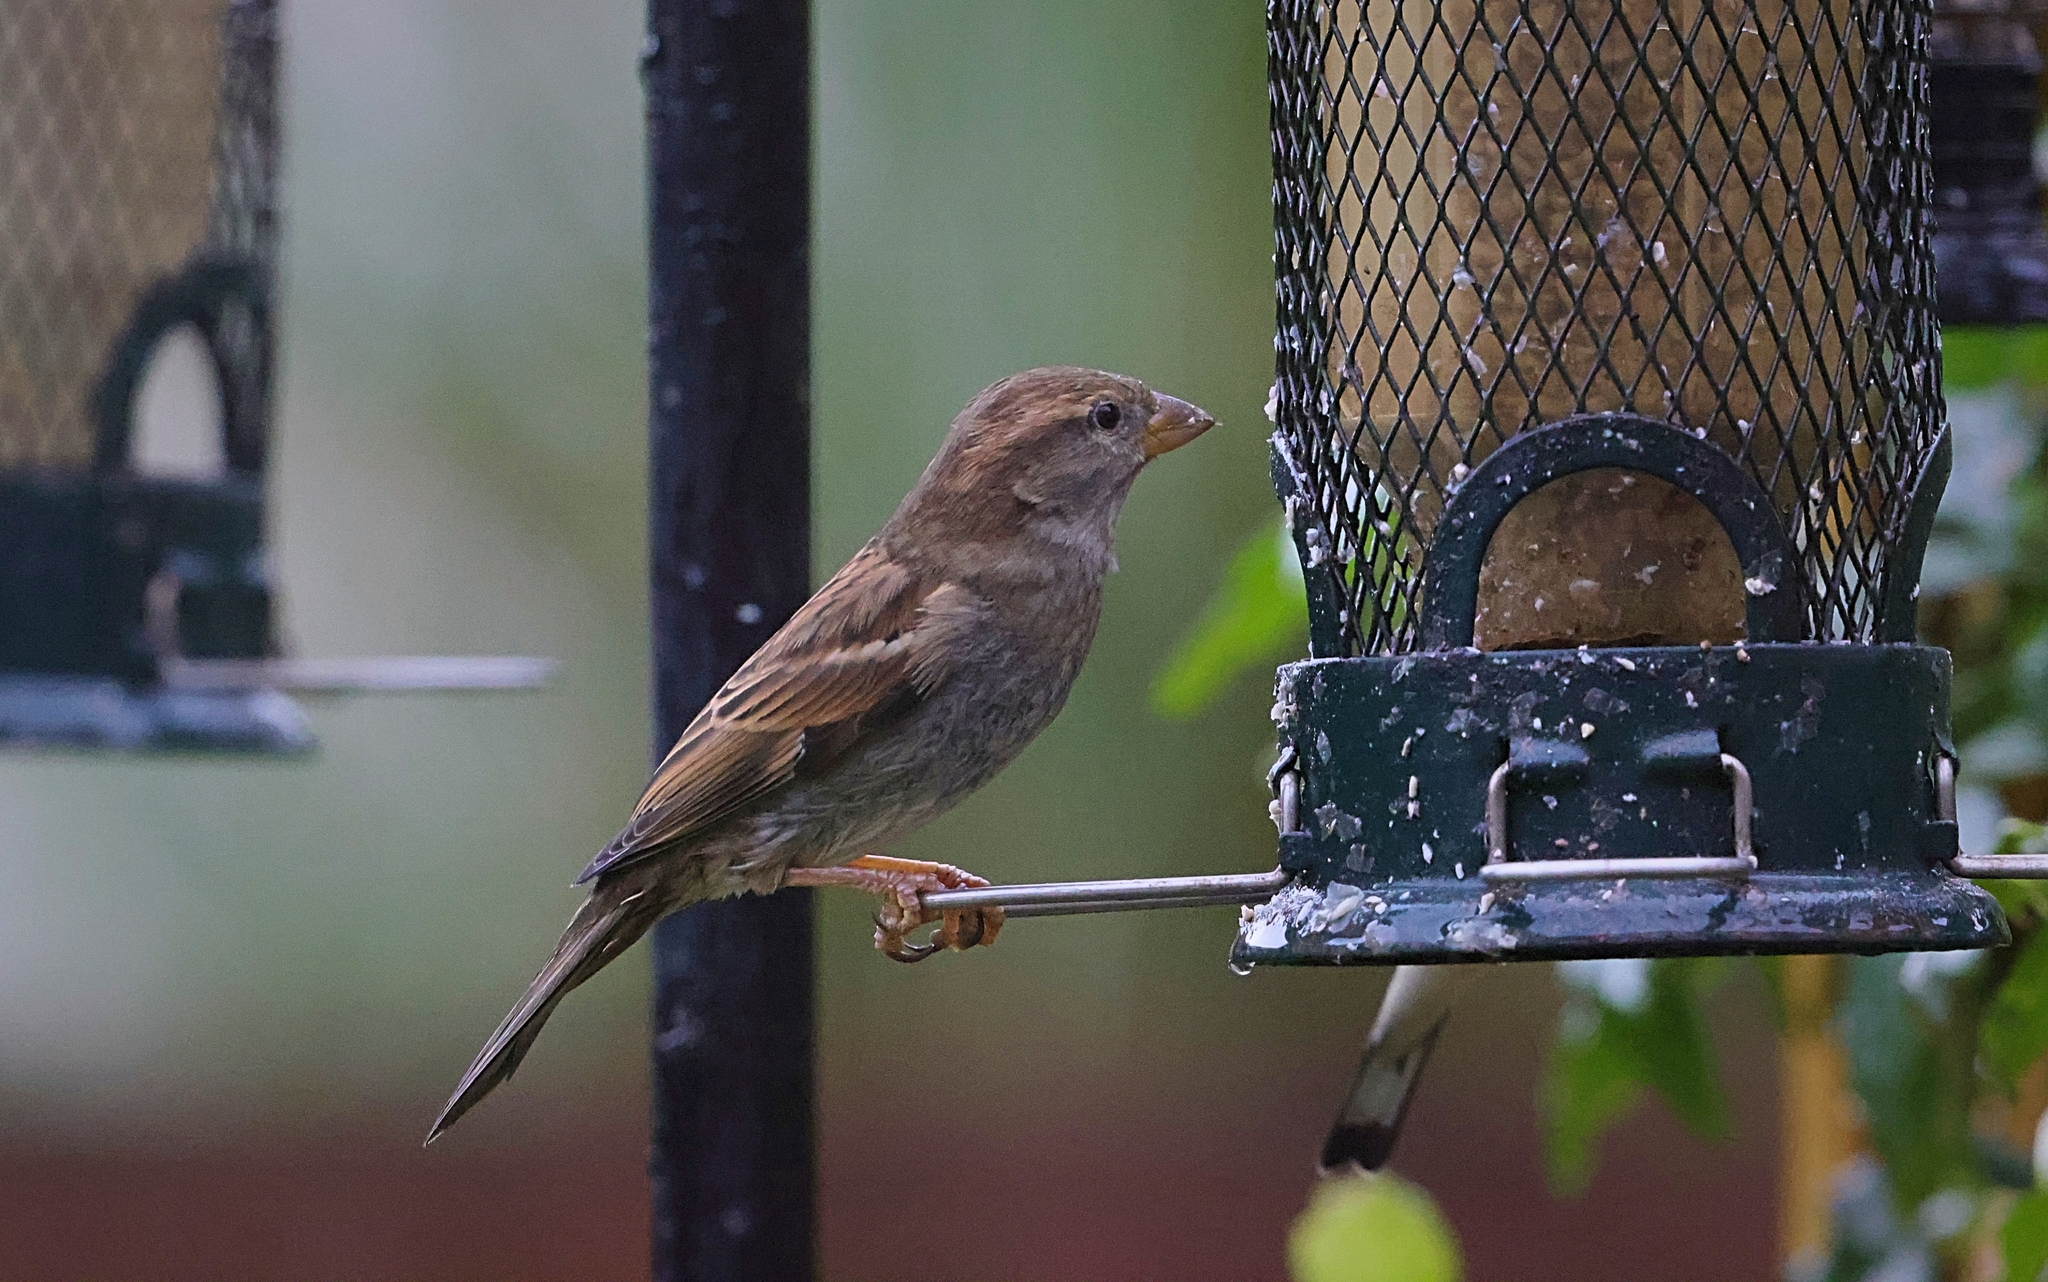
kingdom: Animalia
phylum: Chordata
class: Aves
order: Passeriformes
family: Passeridae
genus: Passer
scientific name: Passer domesticus
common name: House sparrow
